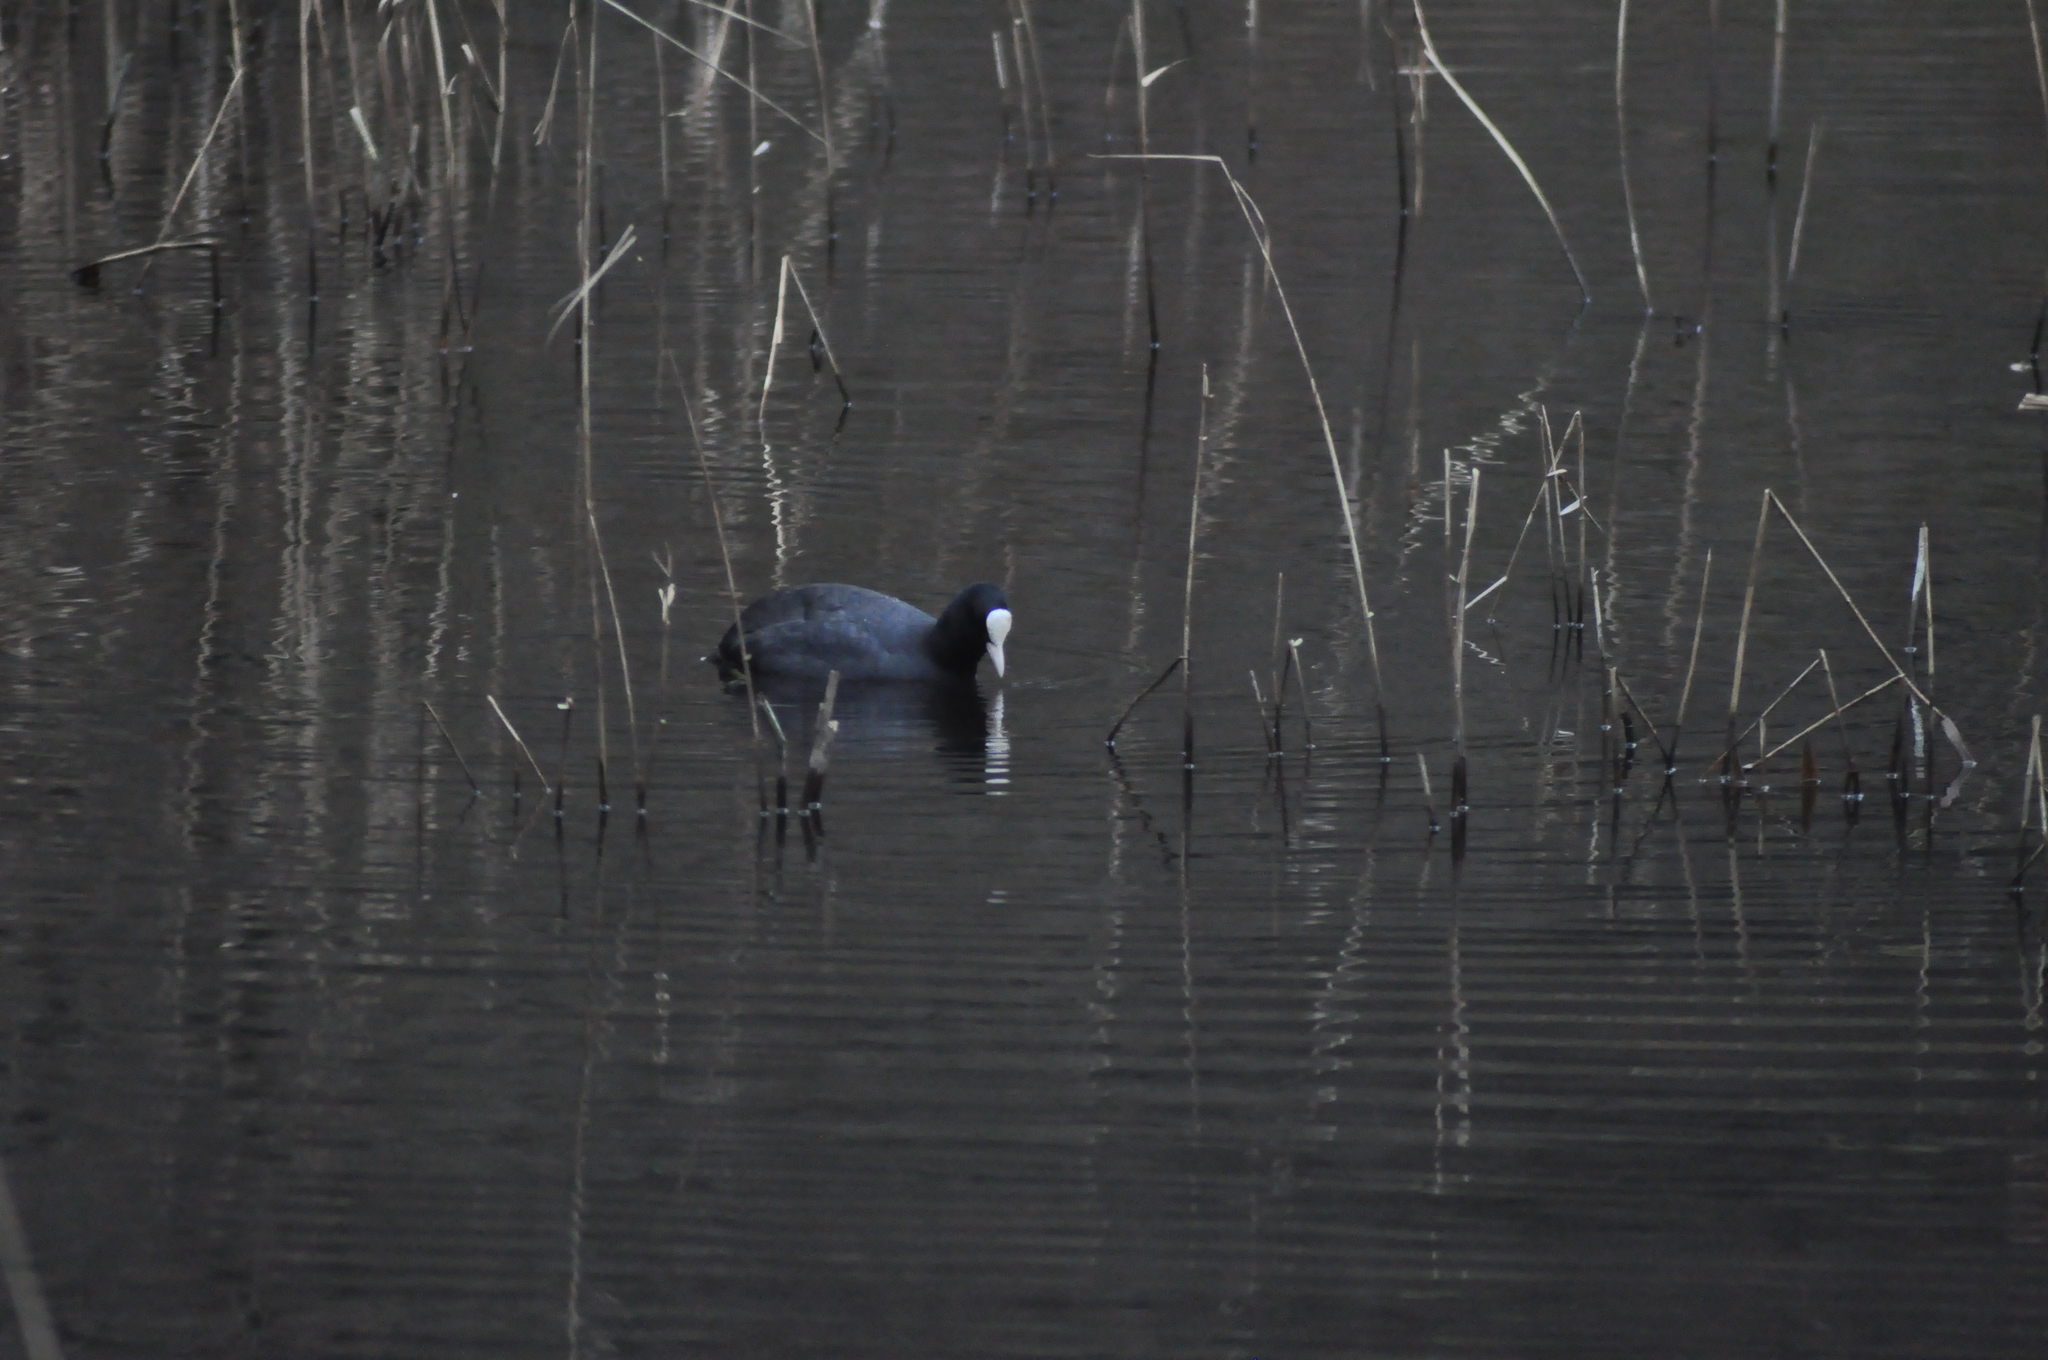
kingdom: Animalia
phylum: Chordata
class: Aves
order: Gruiformes
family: Rallidae
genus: Fulica
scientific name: Fulica atra
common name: Eurasian coot
